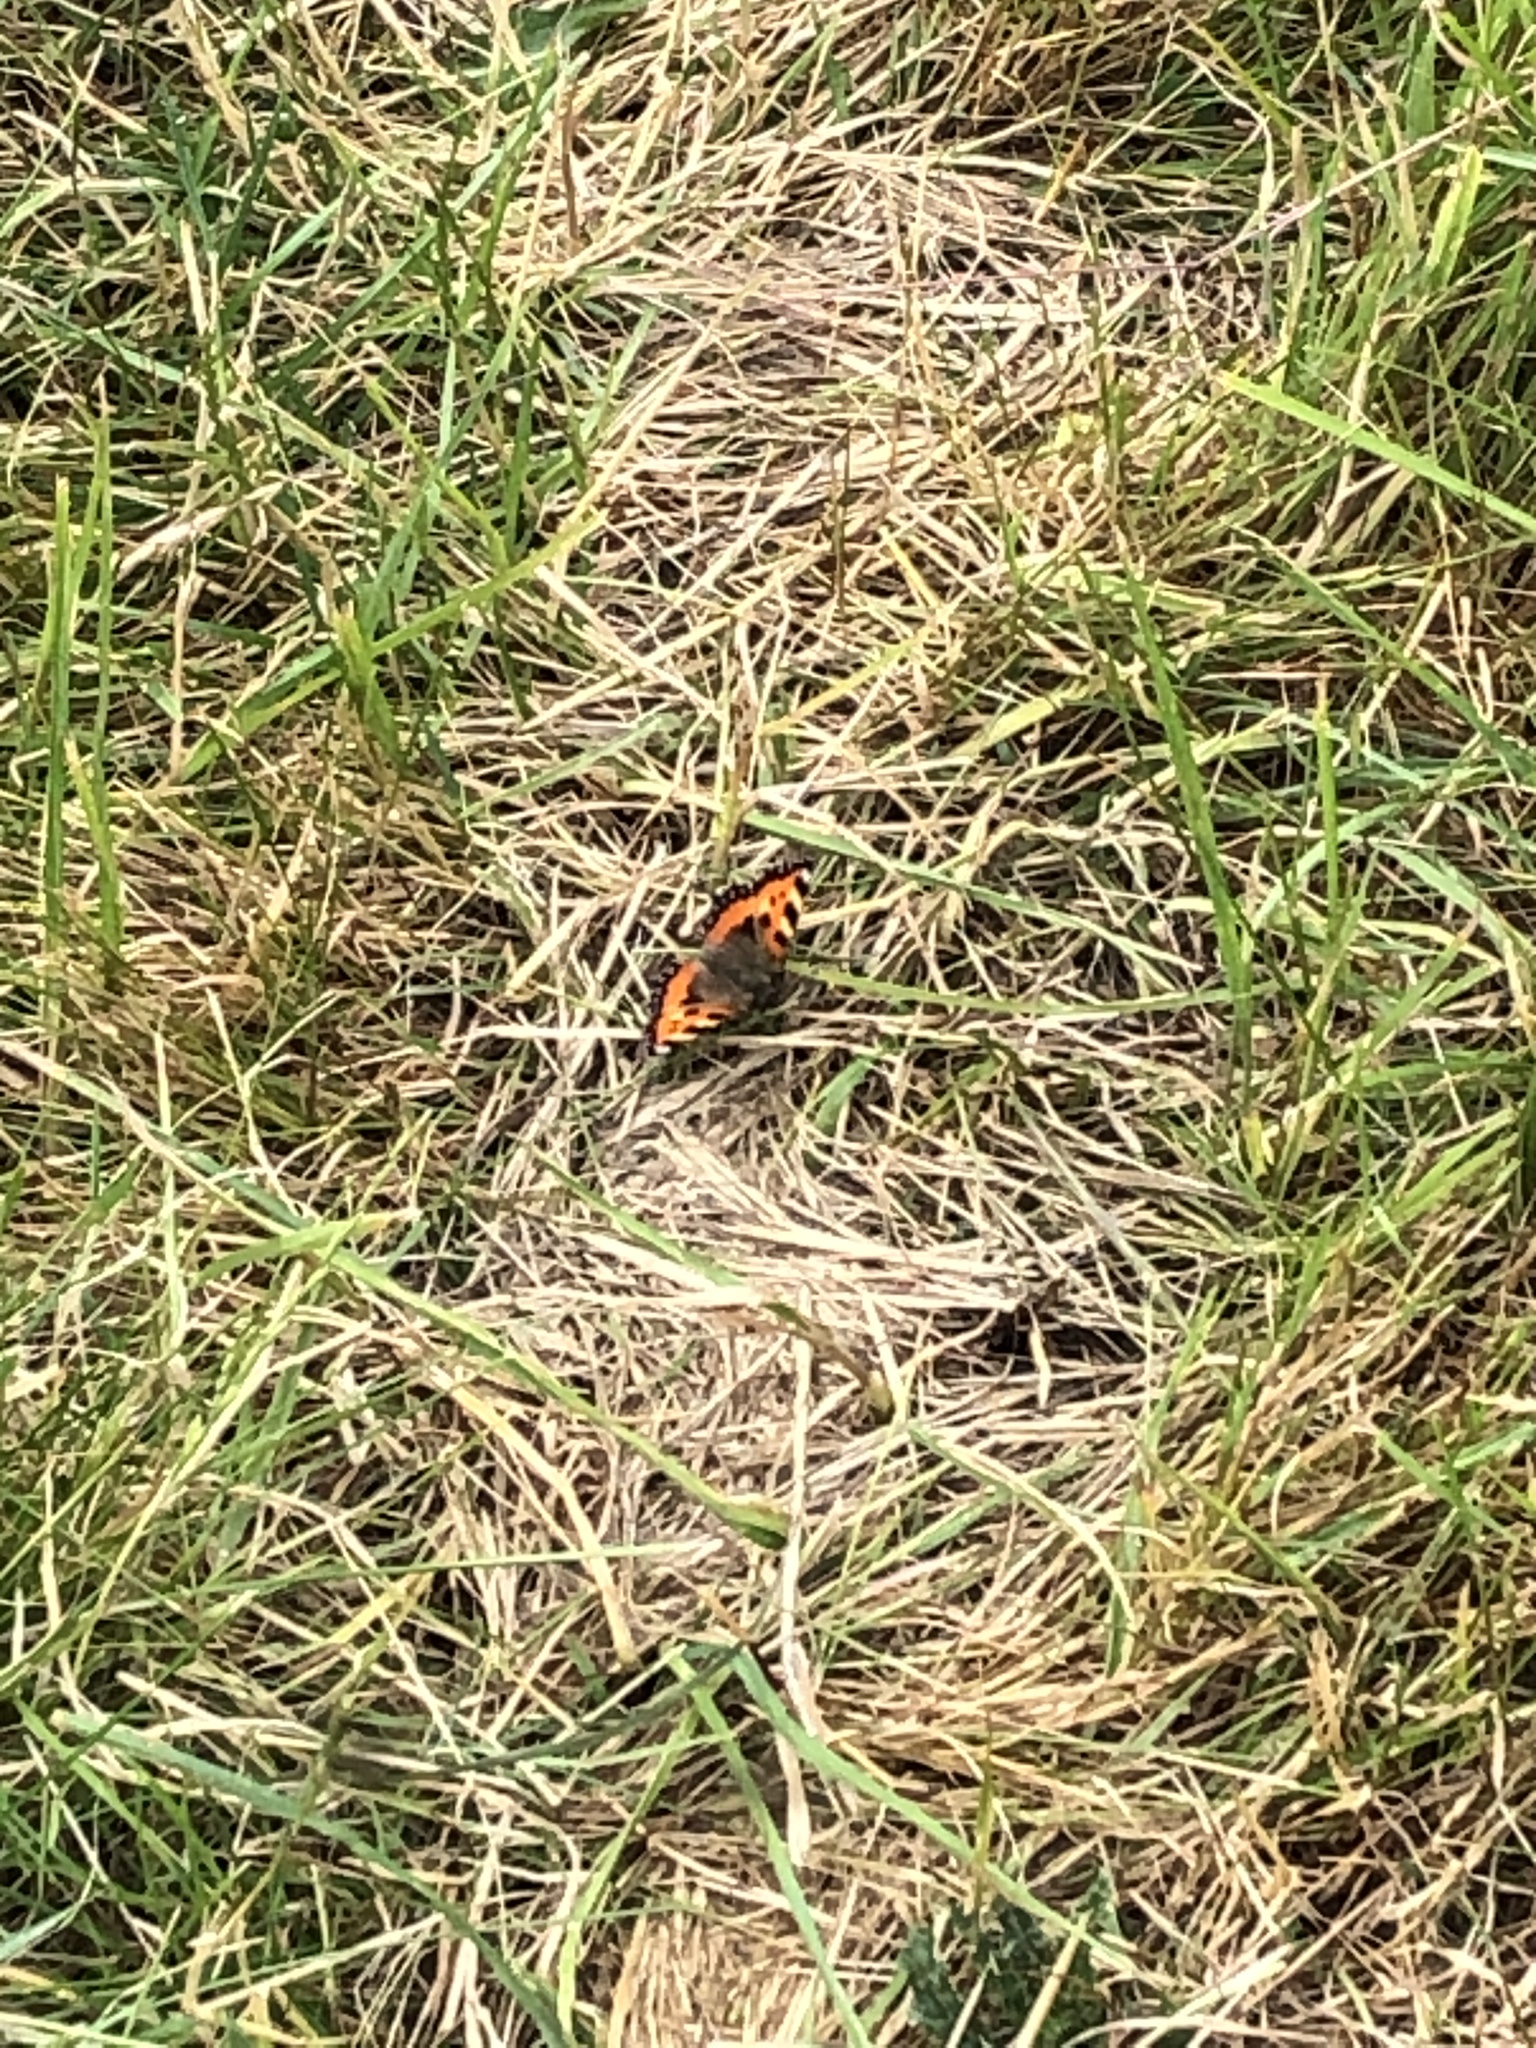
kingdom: Animalia
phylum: Arthropoda
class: Insecta
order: Lepidoptera
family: Nymphalidae
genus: Aglais
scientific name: Aglais urticae
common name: Small tortoiseshell
